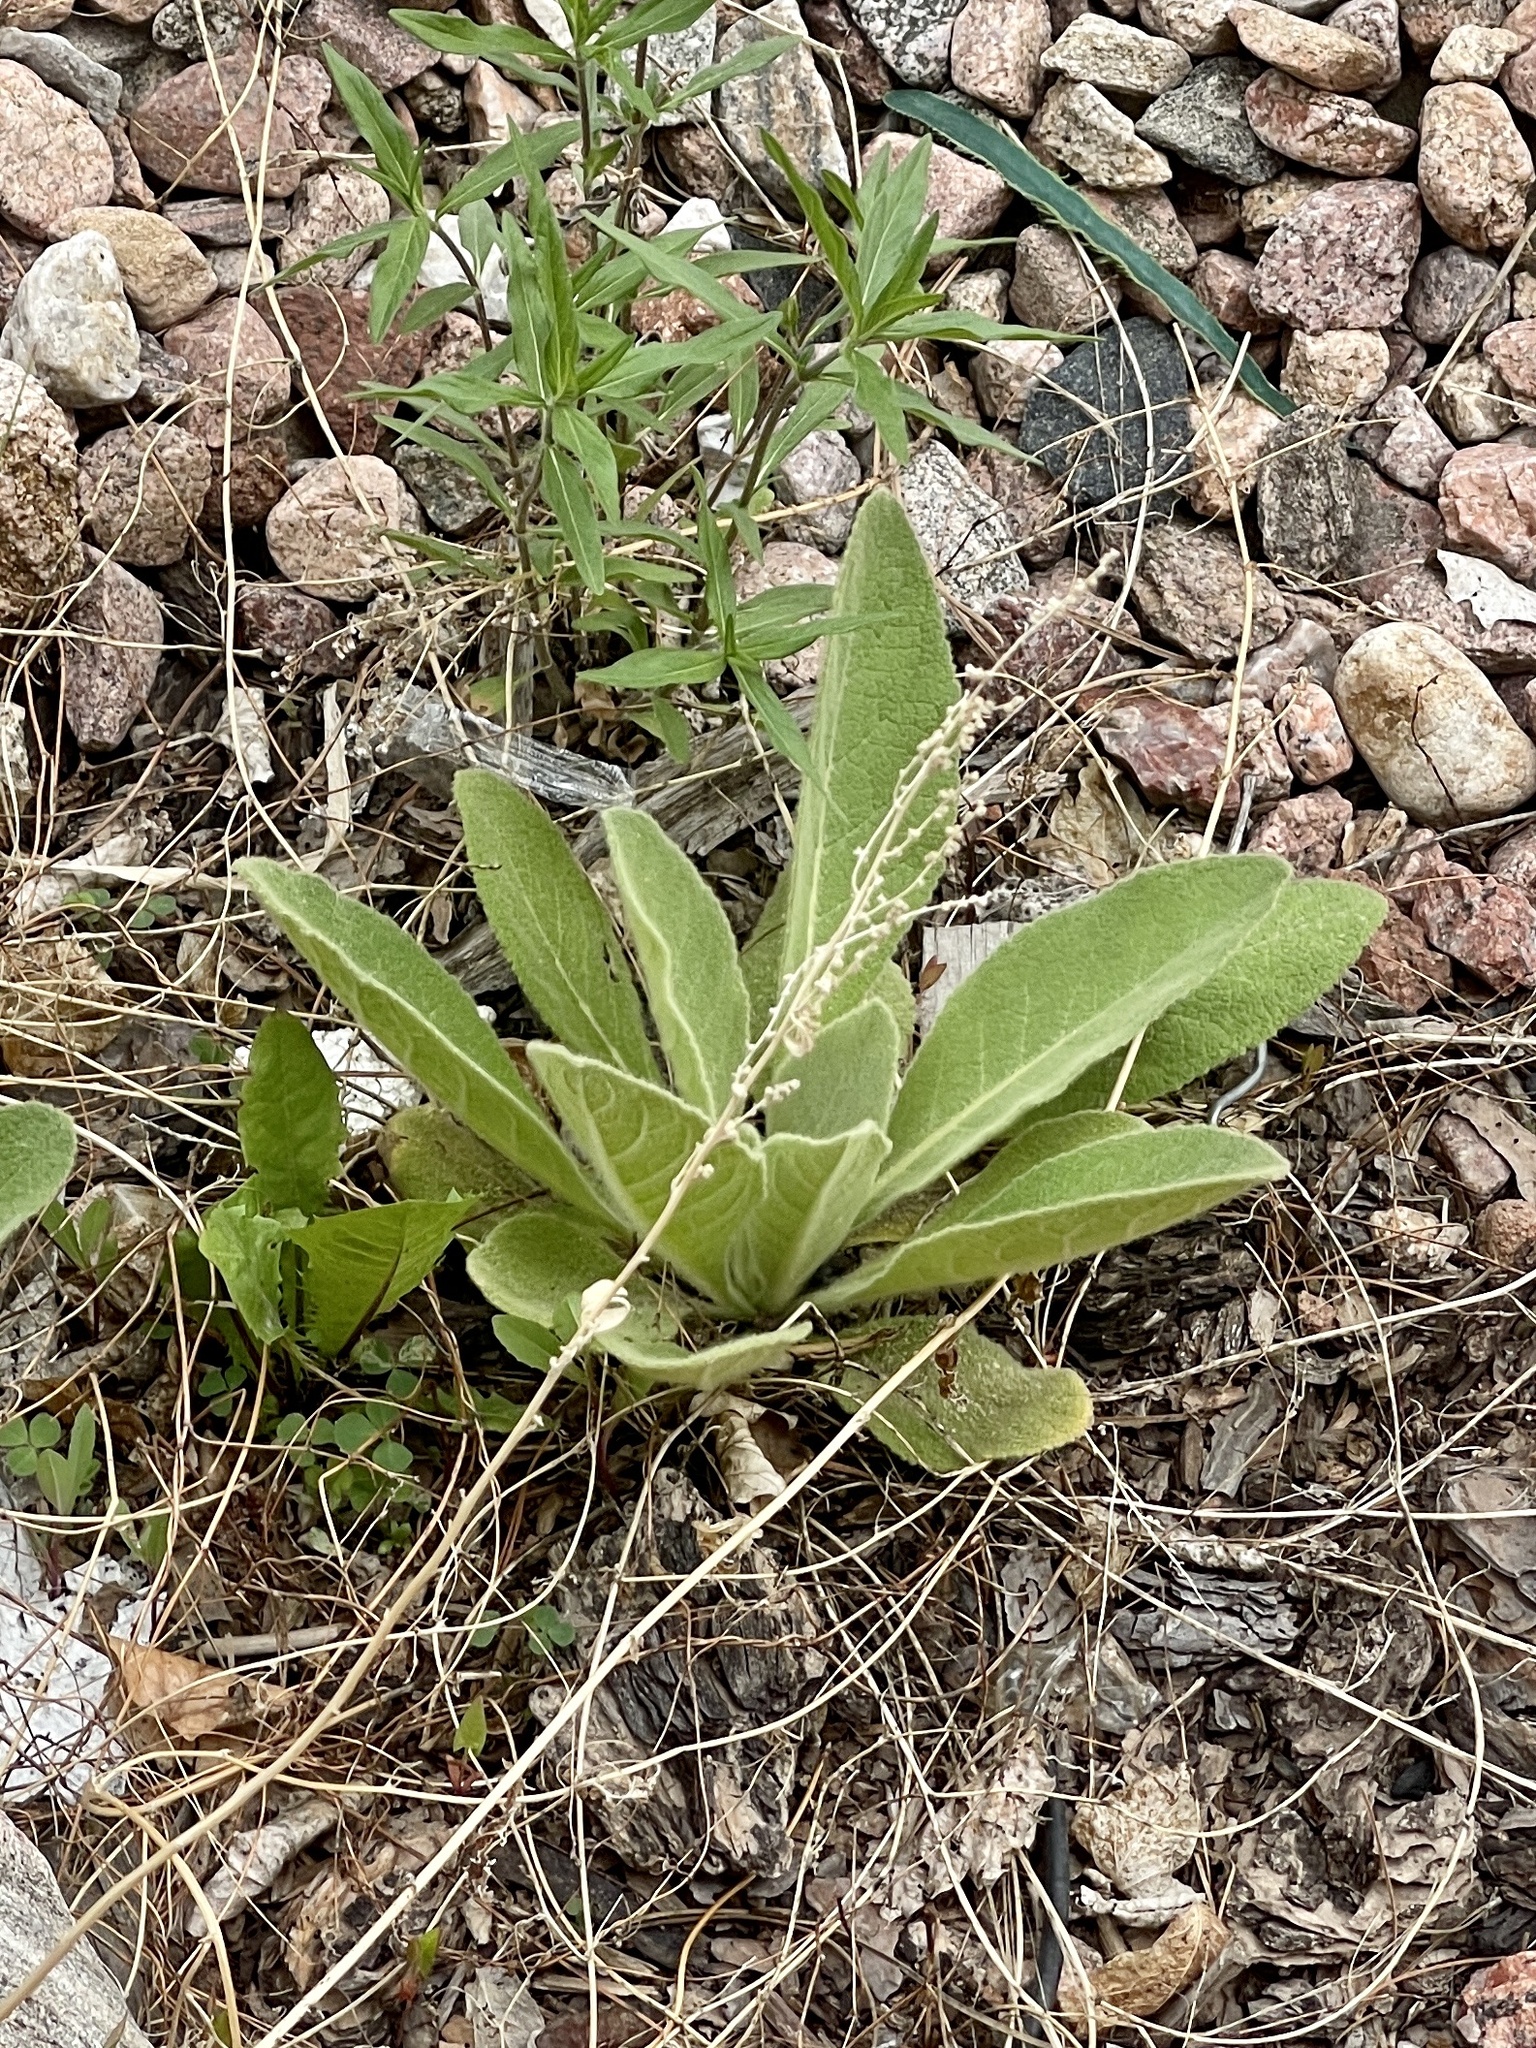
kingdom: Plantae
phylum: Tracheophyta
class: Magnoliopsida
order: Lamiales
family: Scrophulariaceae
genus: Verbascum
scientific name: Verbascum thapsus
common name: Common mullein
